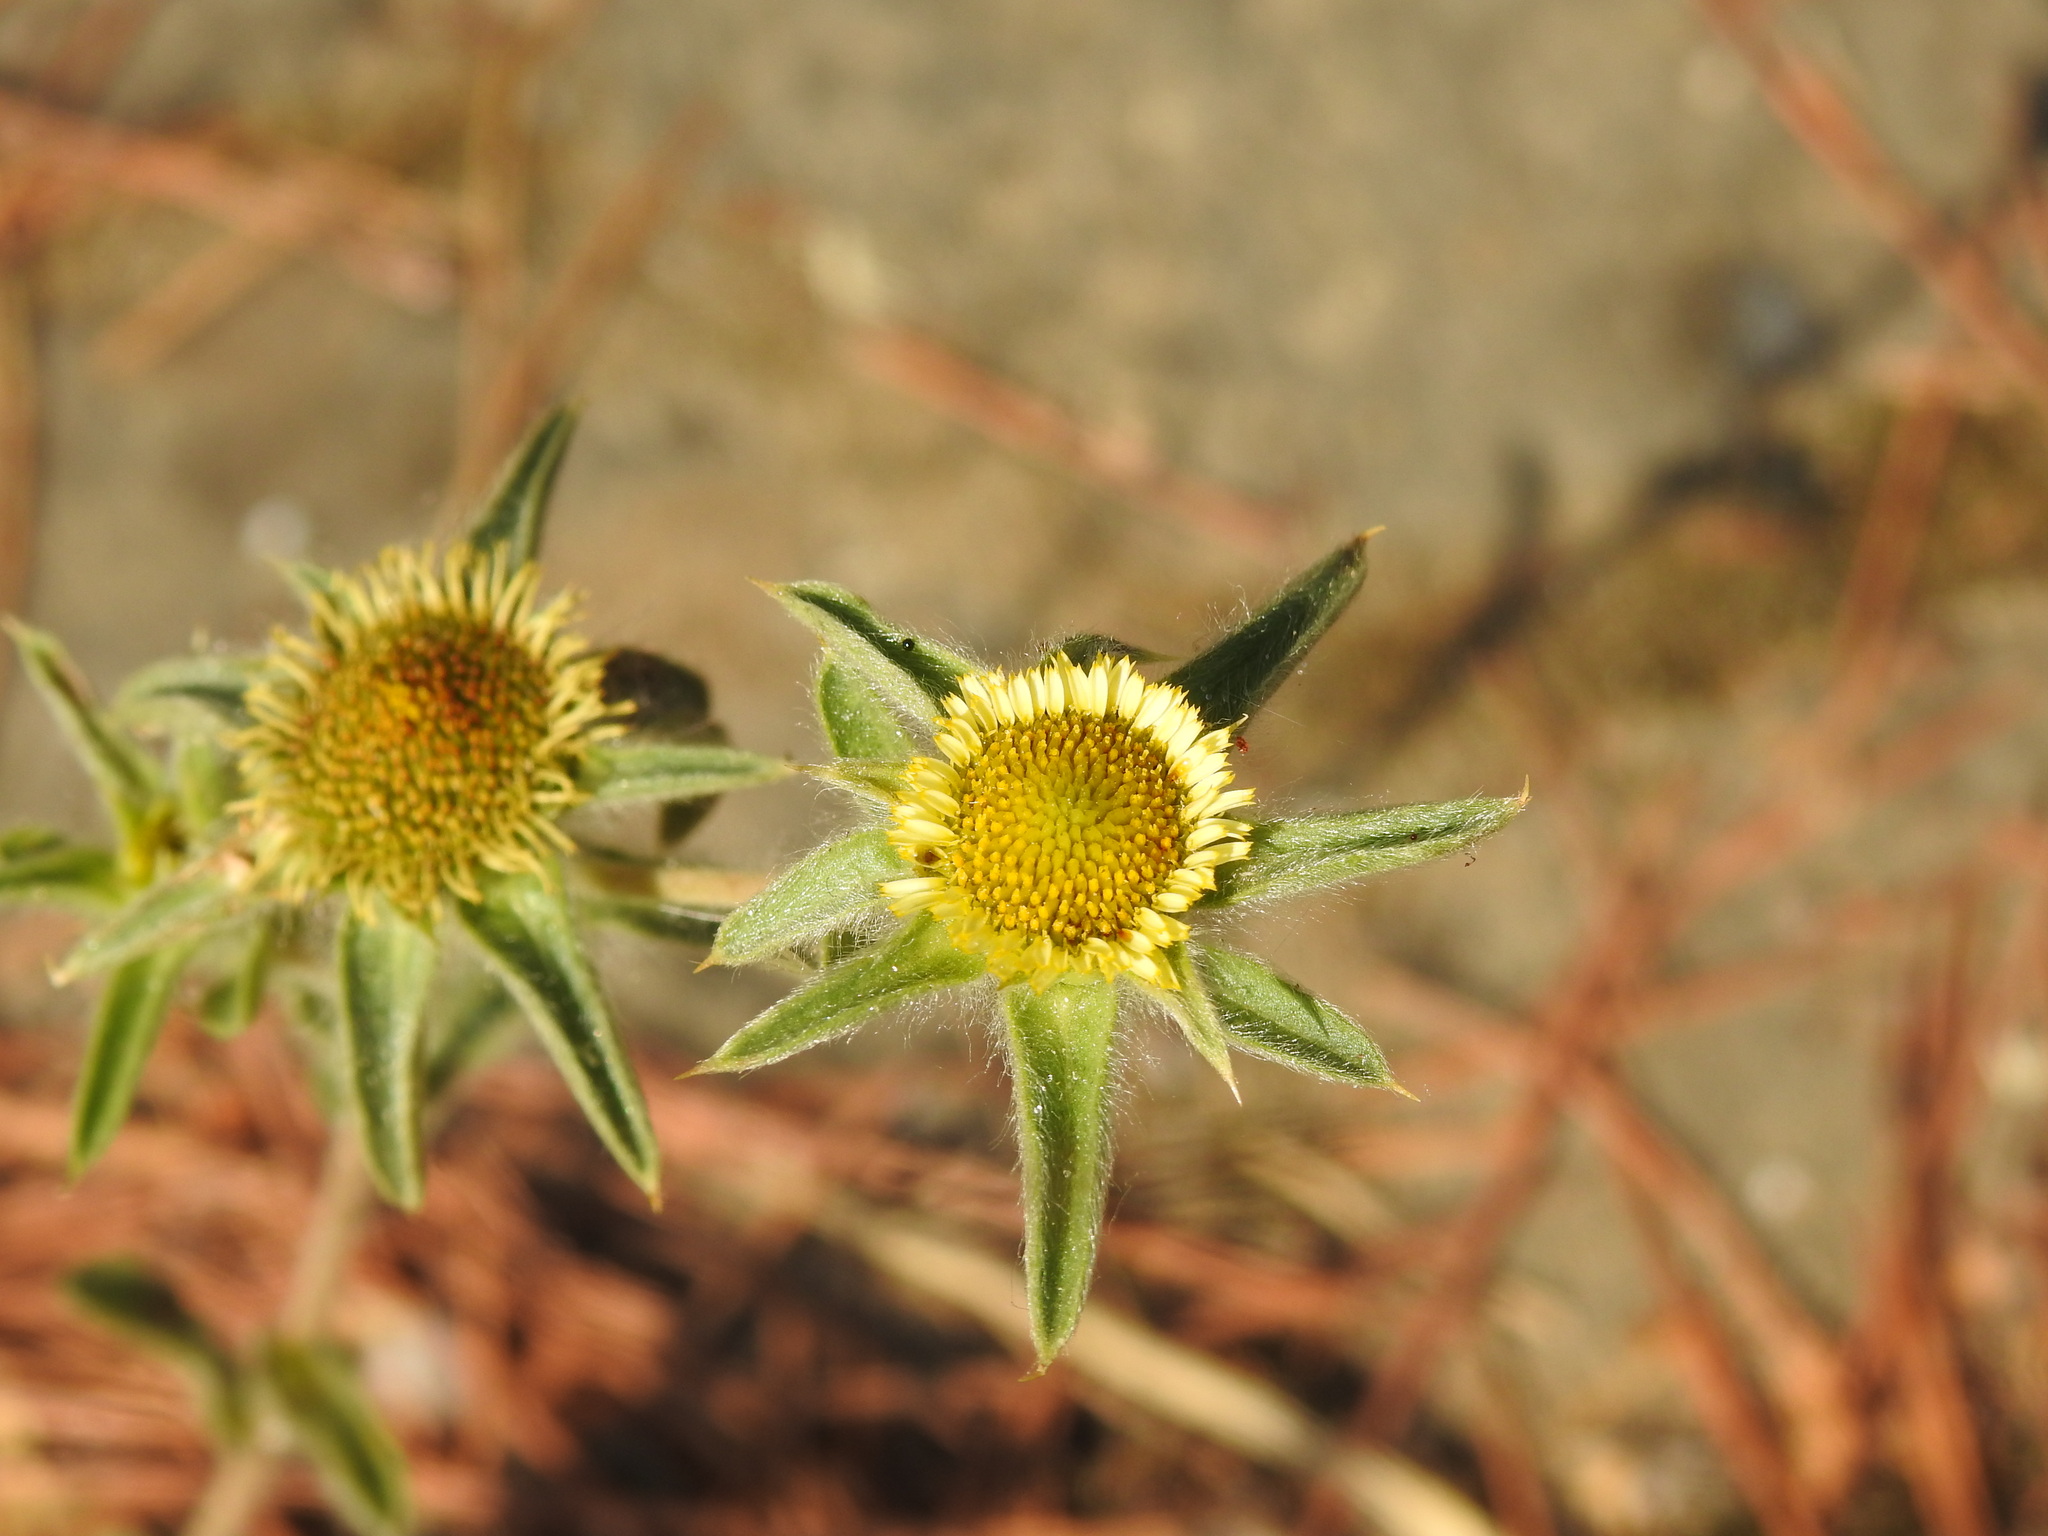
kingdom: Plantae
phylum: Tracheophyta
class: Magnoliopsida
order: Asterales
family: Asteraceae
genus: Pallenis
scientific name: Pallenis spinosa
